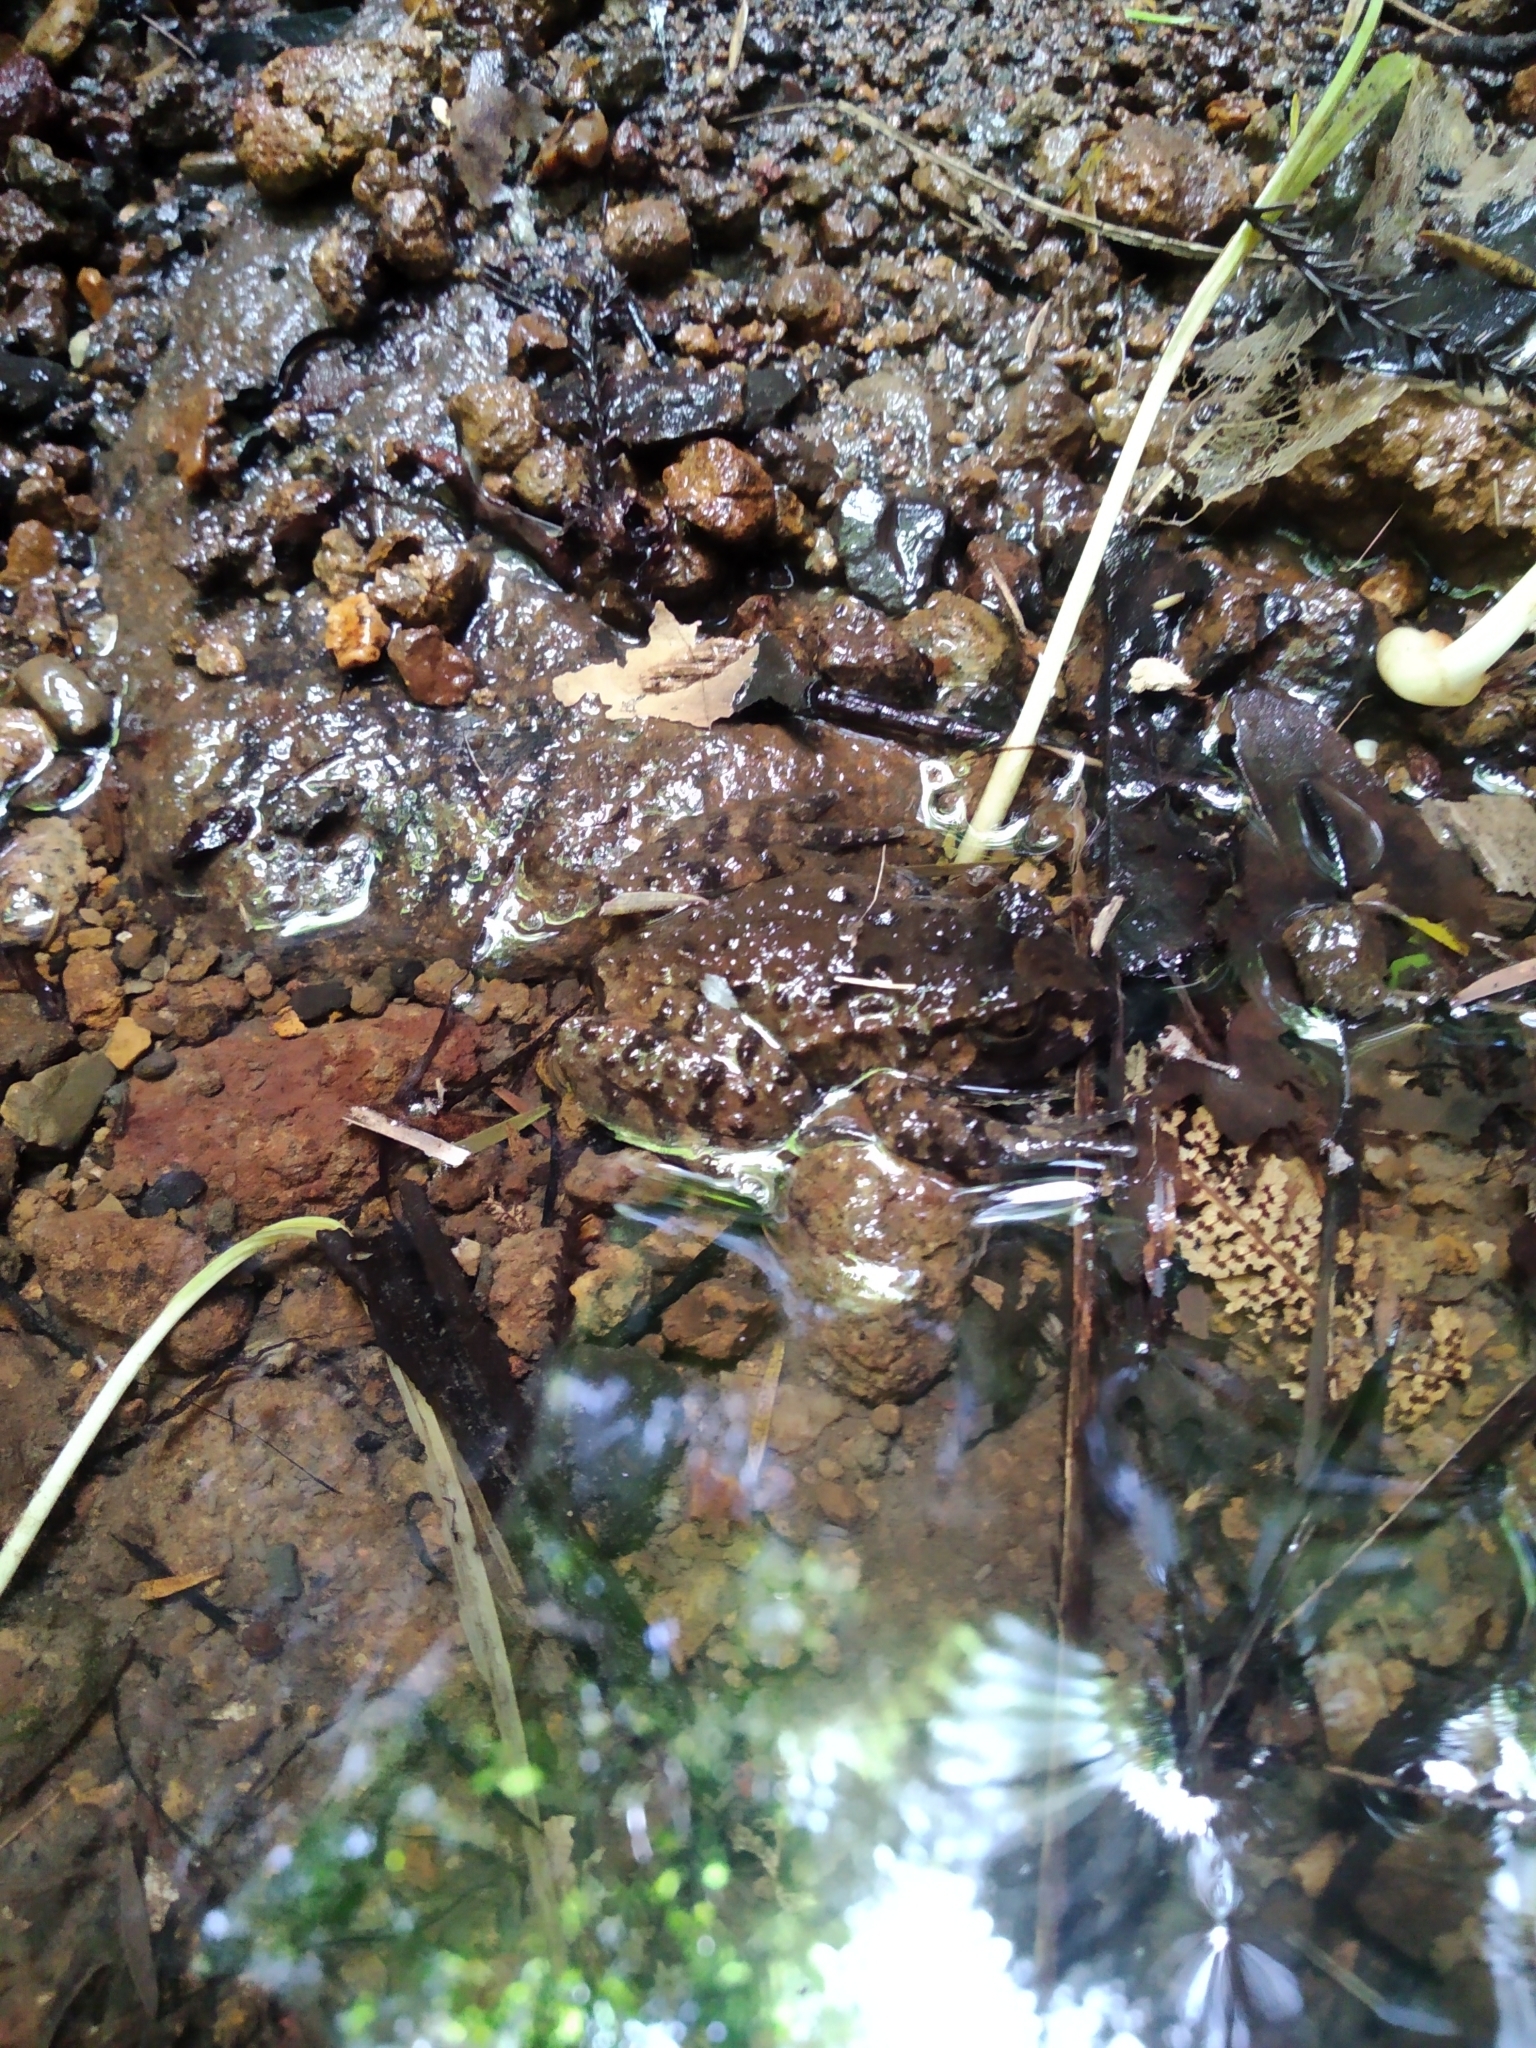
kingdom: Animalia
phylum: Chordata
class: Amphibia
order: Anura
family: Leiopelmatidae
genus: Leiopelma
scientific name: Leiopelma hochstetteri
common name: Hochstetters new zealand frog
